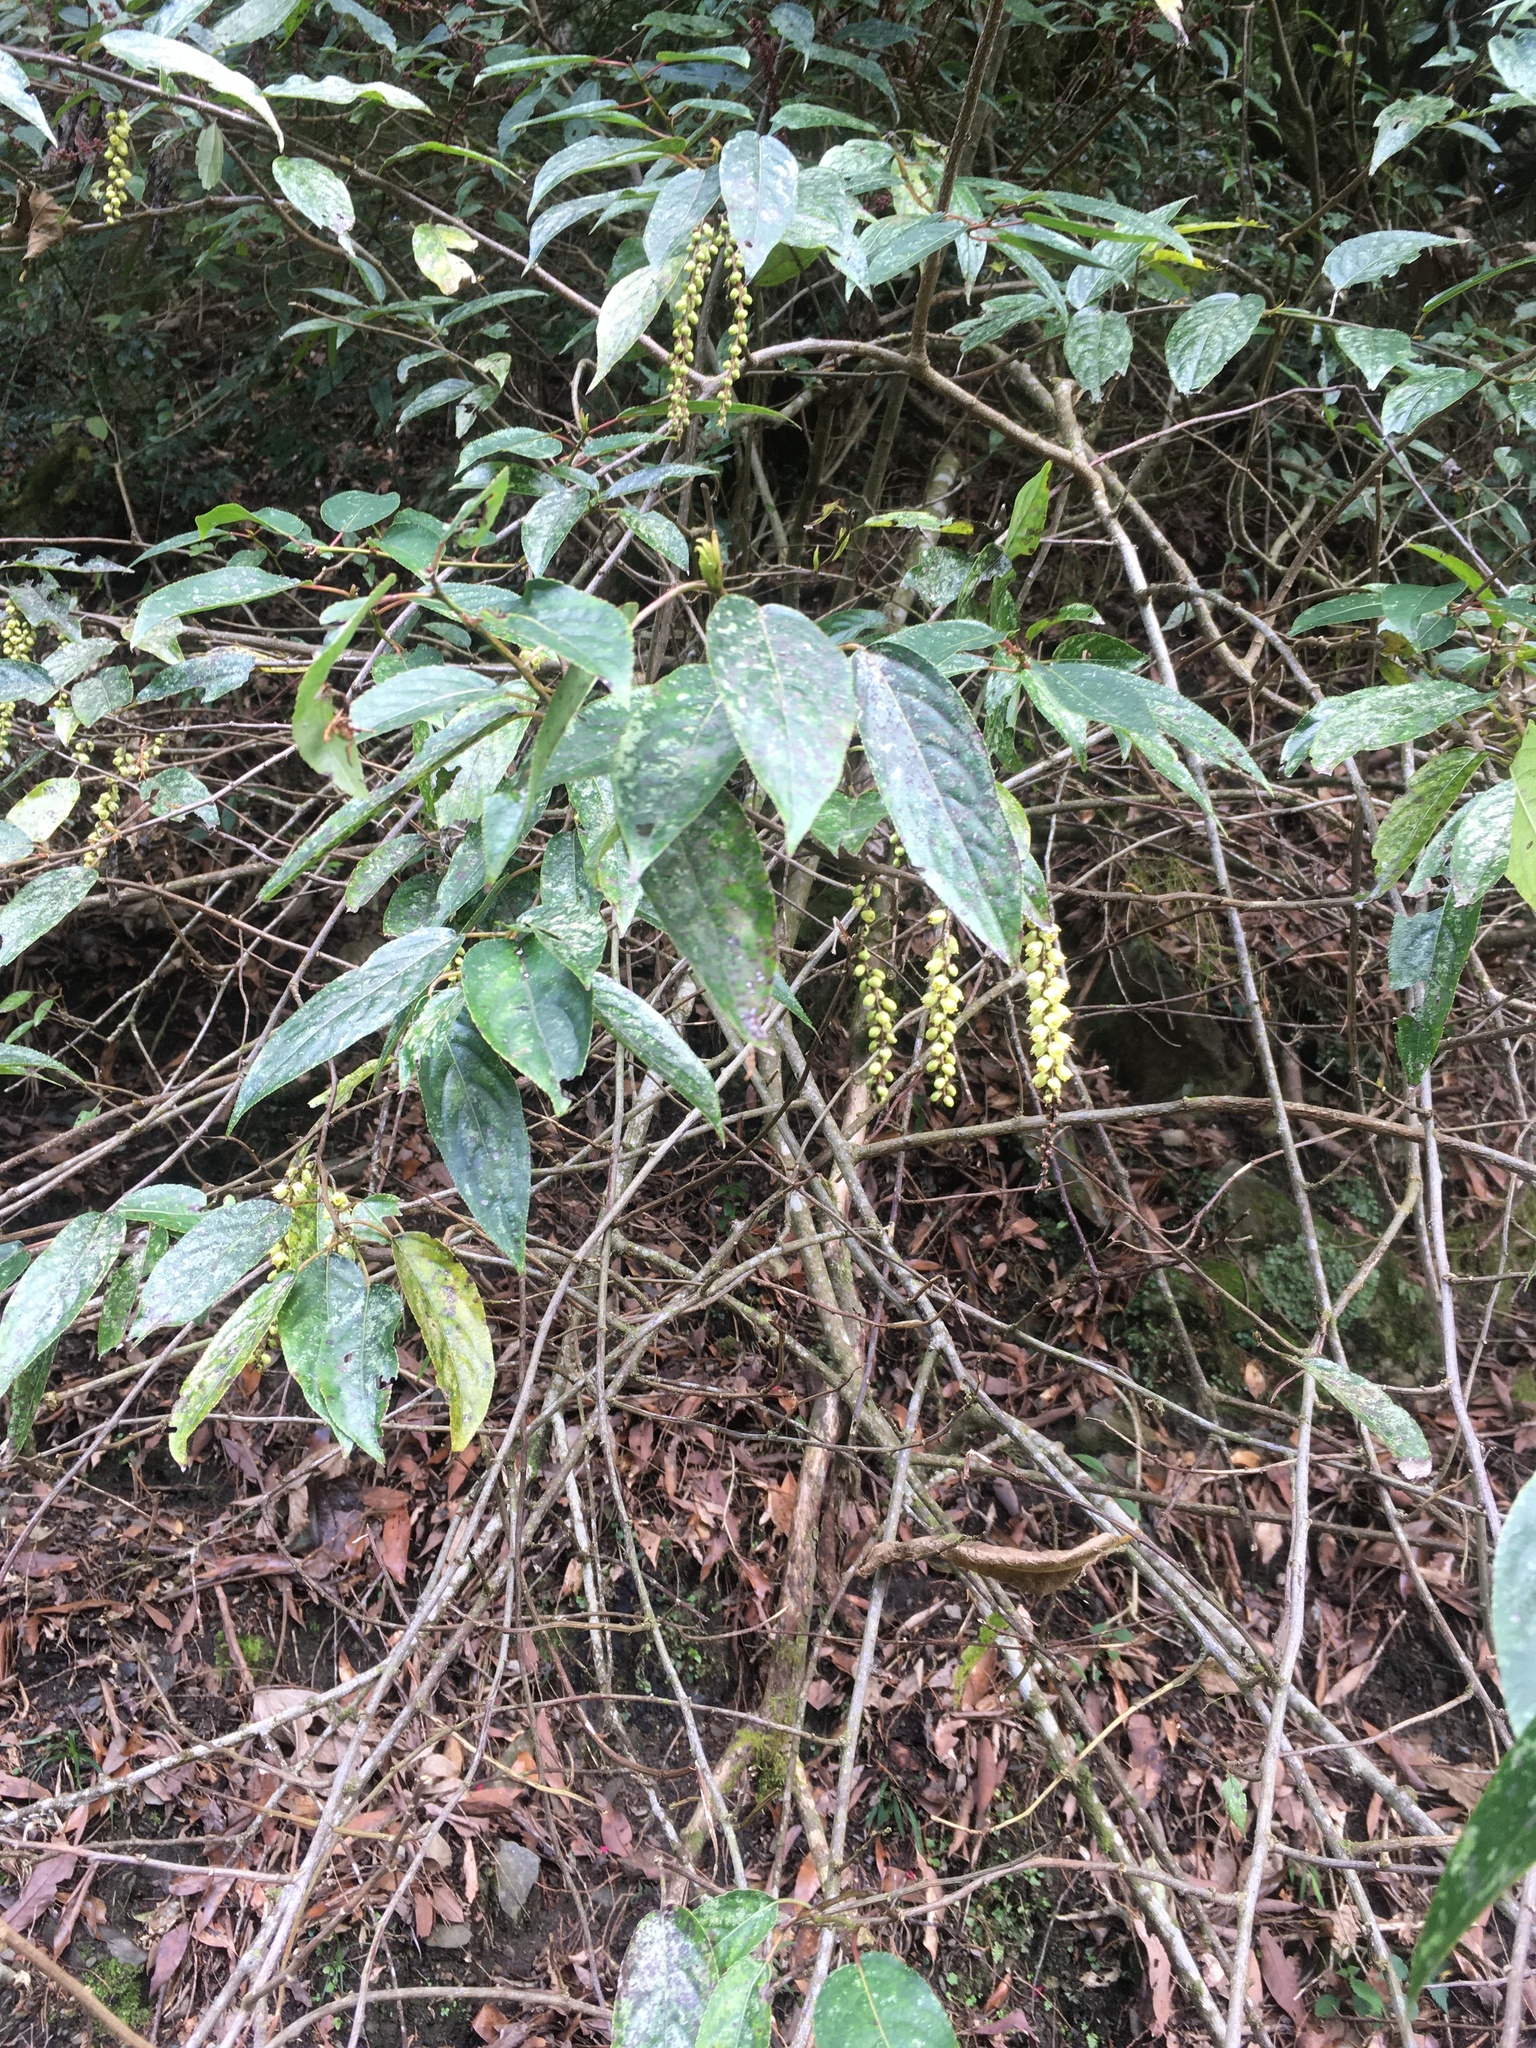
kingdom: Plantae
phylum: Tracheophyta
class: Magnoliopsida
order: Crossosomatales
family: Stachyuraceae
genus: Stachyurus
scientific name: Stachyurus himalaicus
